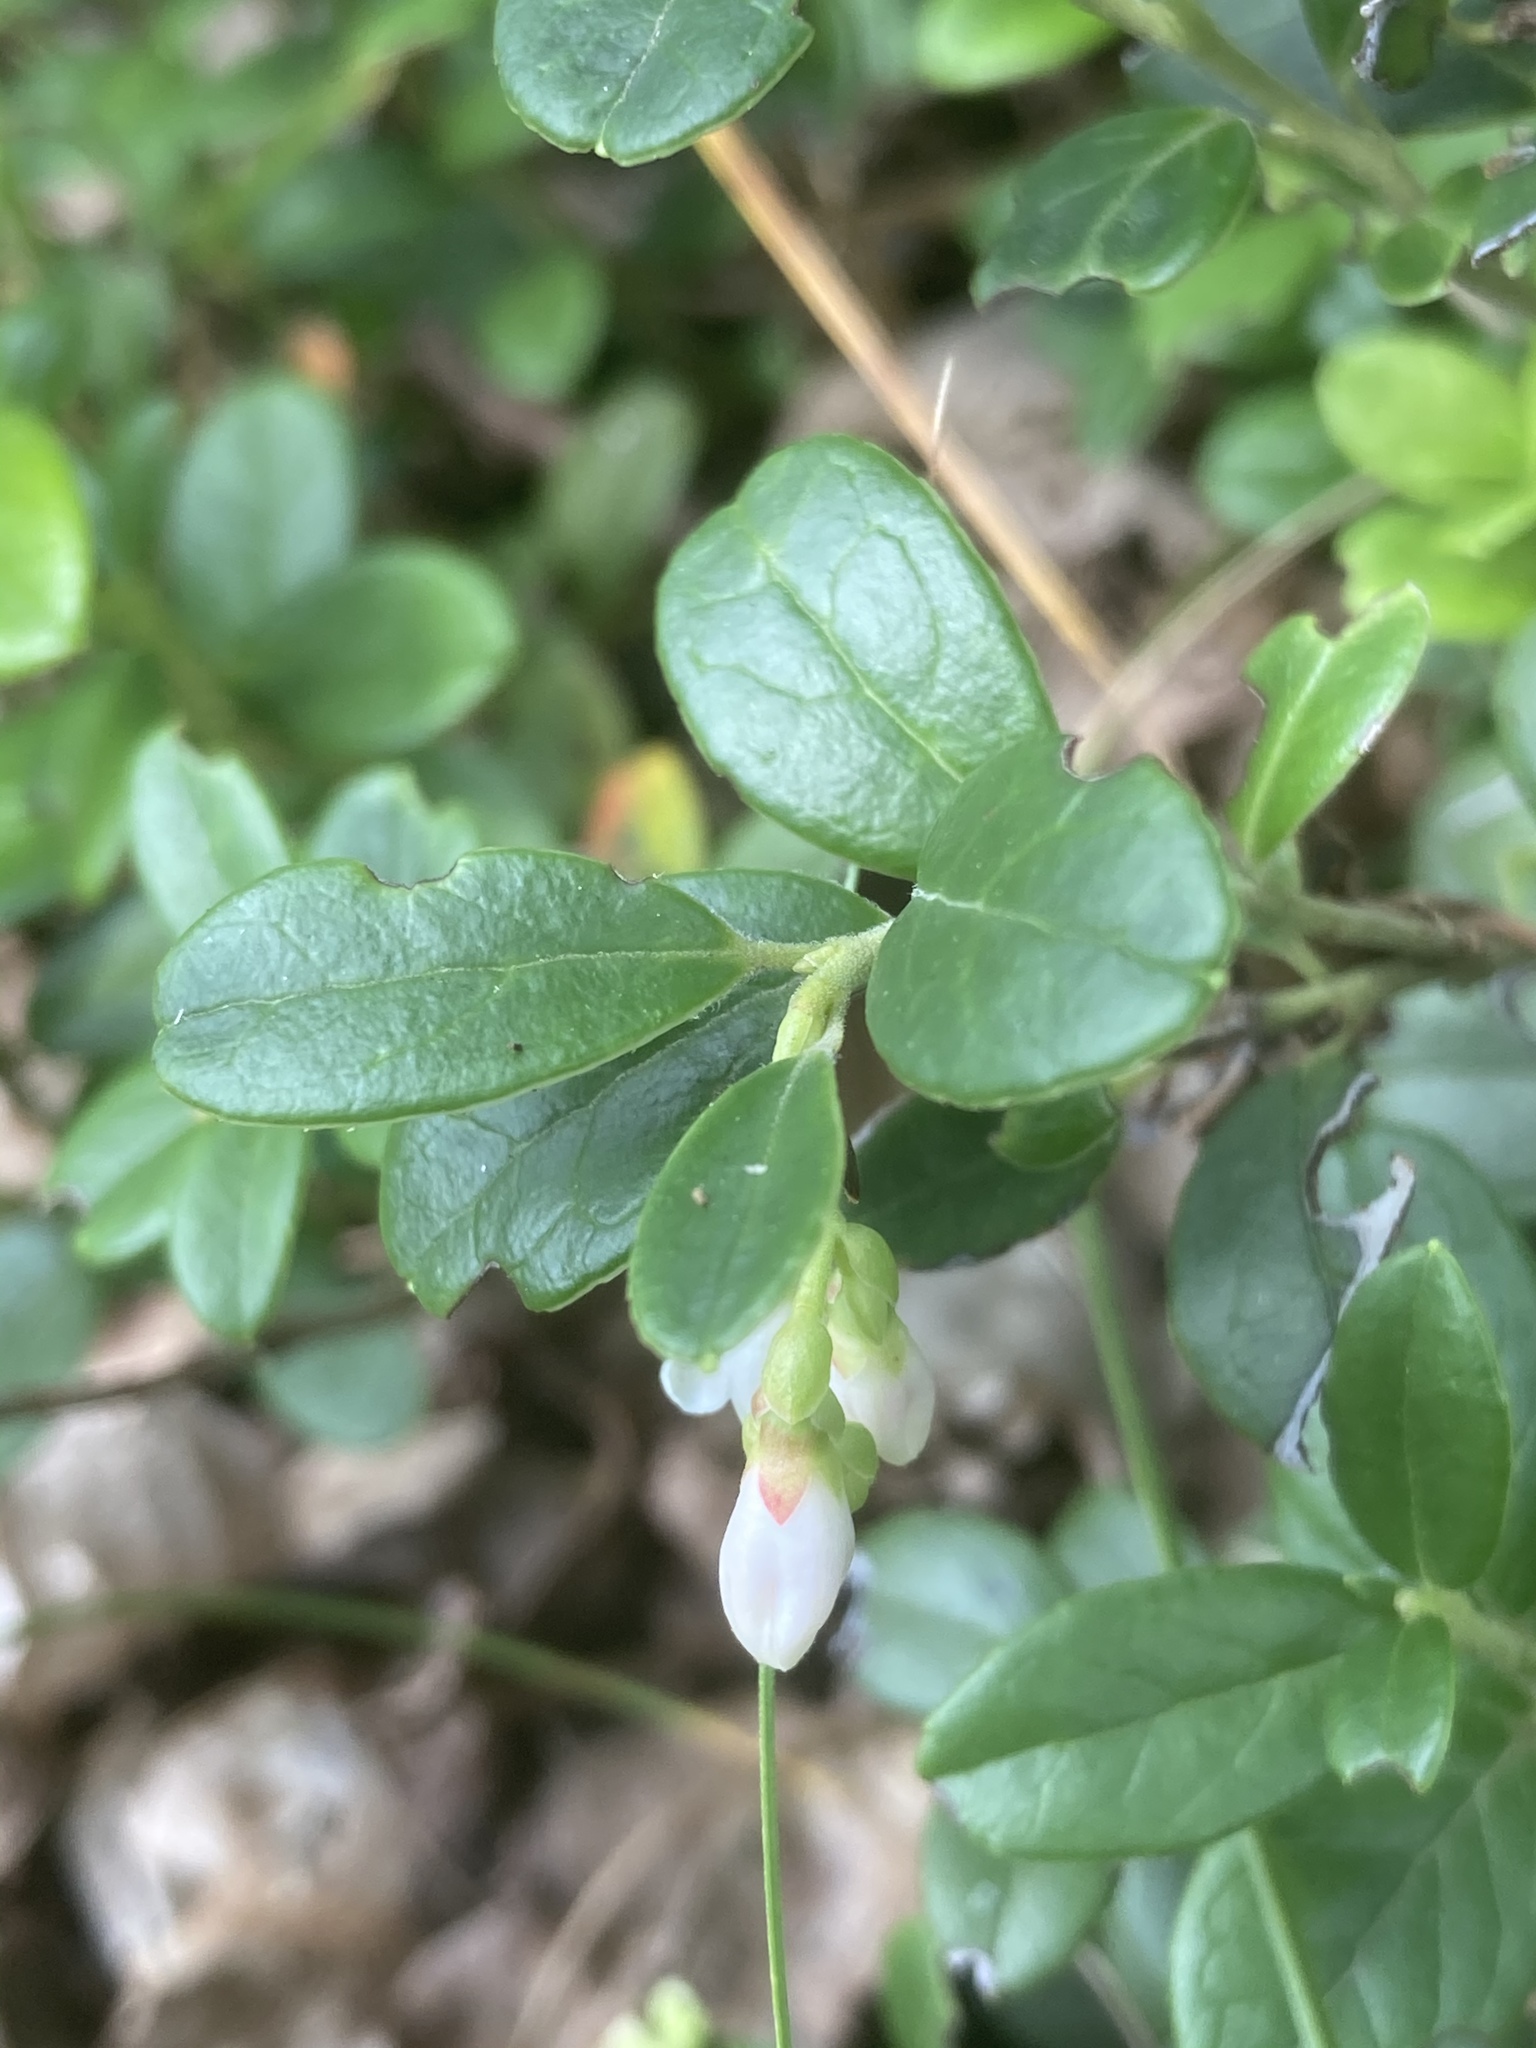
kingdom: Plantae
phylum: Tracheophyta
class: Magnoliopsida
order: Ericales
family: Ericaceae
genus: Vaccinium
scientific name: Vaccinium vitis-idaea
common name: Cowberry
